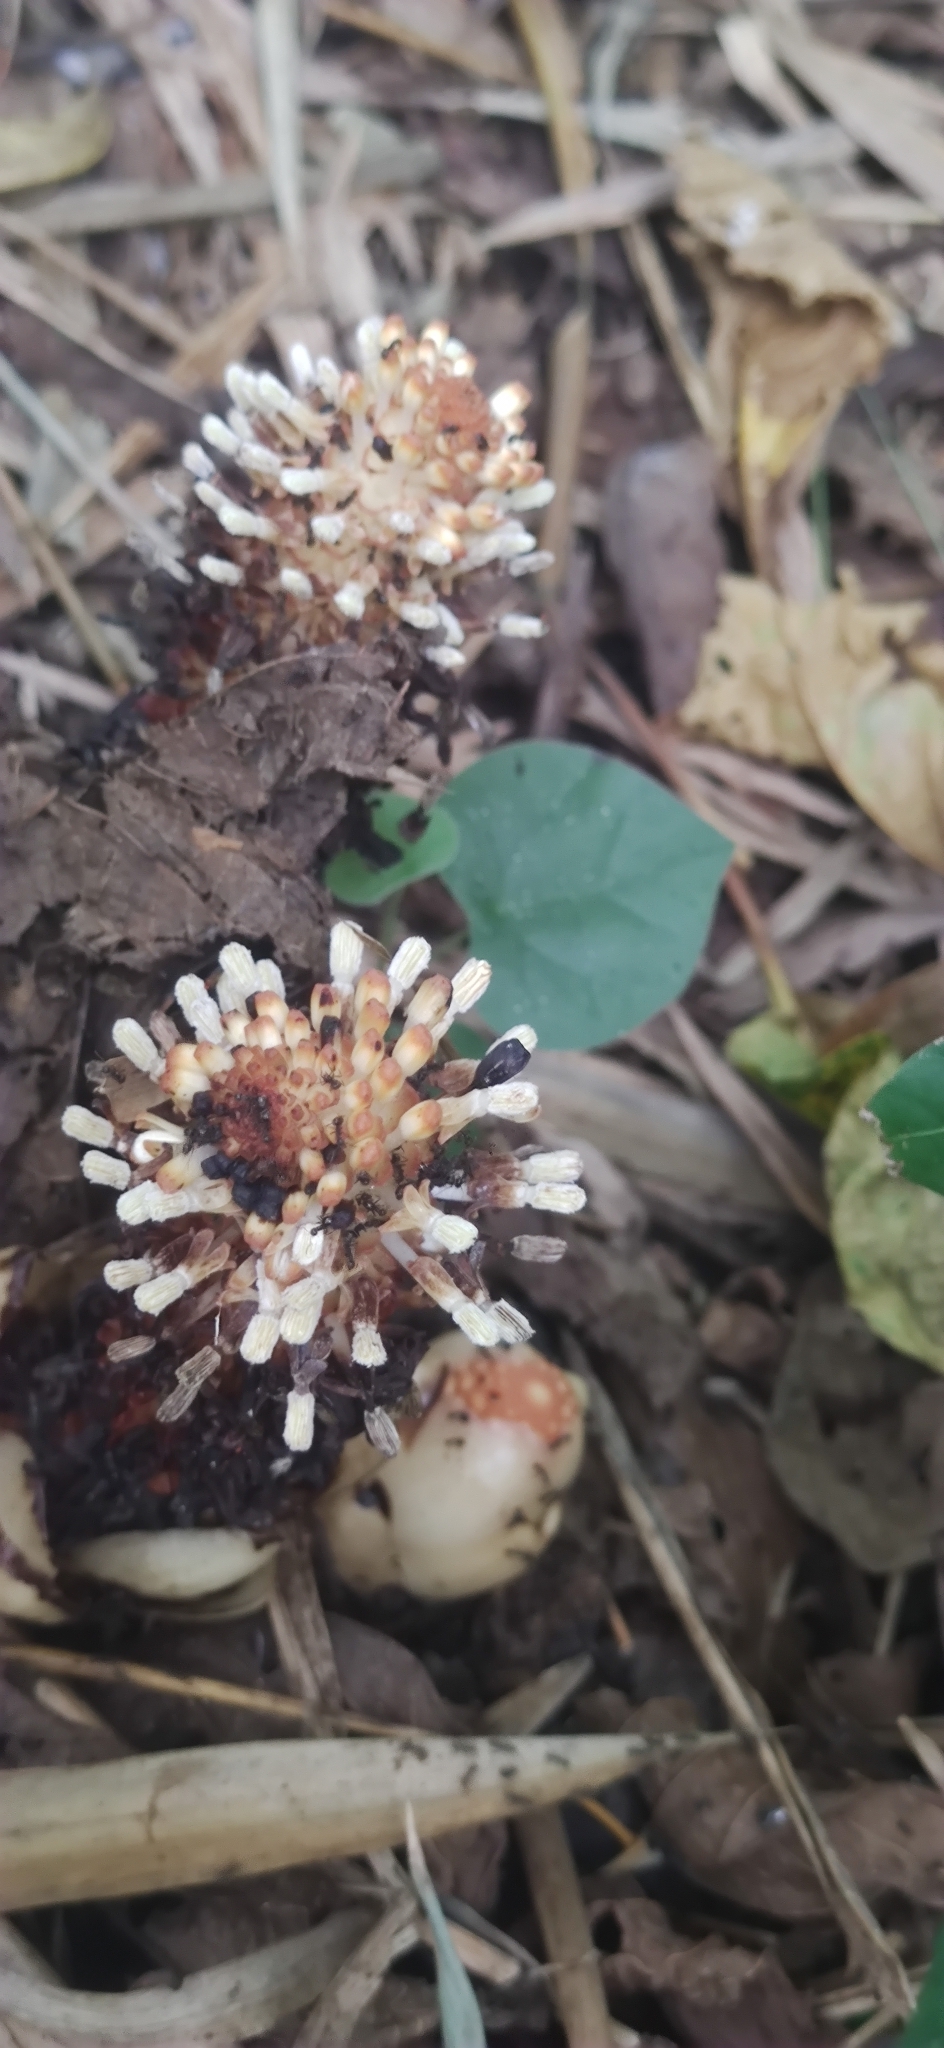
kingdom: Plantae
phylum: Tracheophyta
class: Magnoliopsida
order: Santalales
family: Balanophoraceae
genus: Balanophora
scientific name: Balanophora fungosa
